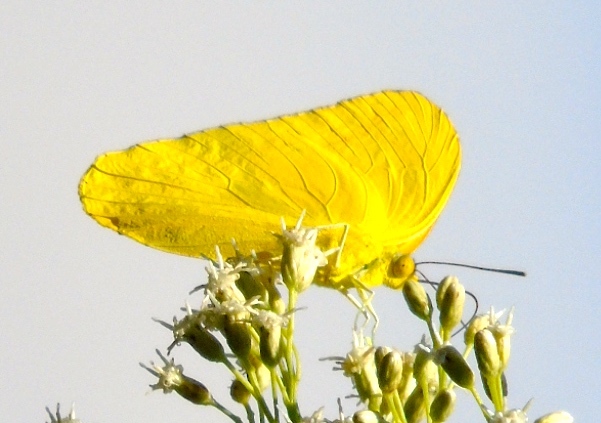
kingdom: Animalia
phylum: Arthropoda
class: Insecta
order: Lepidoptera
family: Pieridae
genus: Aphrissa
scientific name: Aphrissa statira
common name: Statira sulphur
